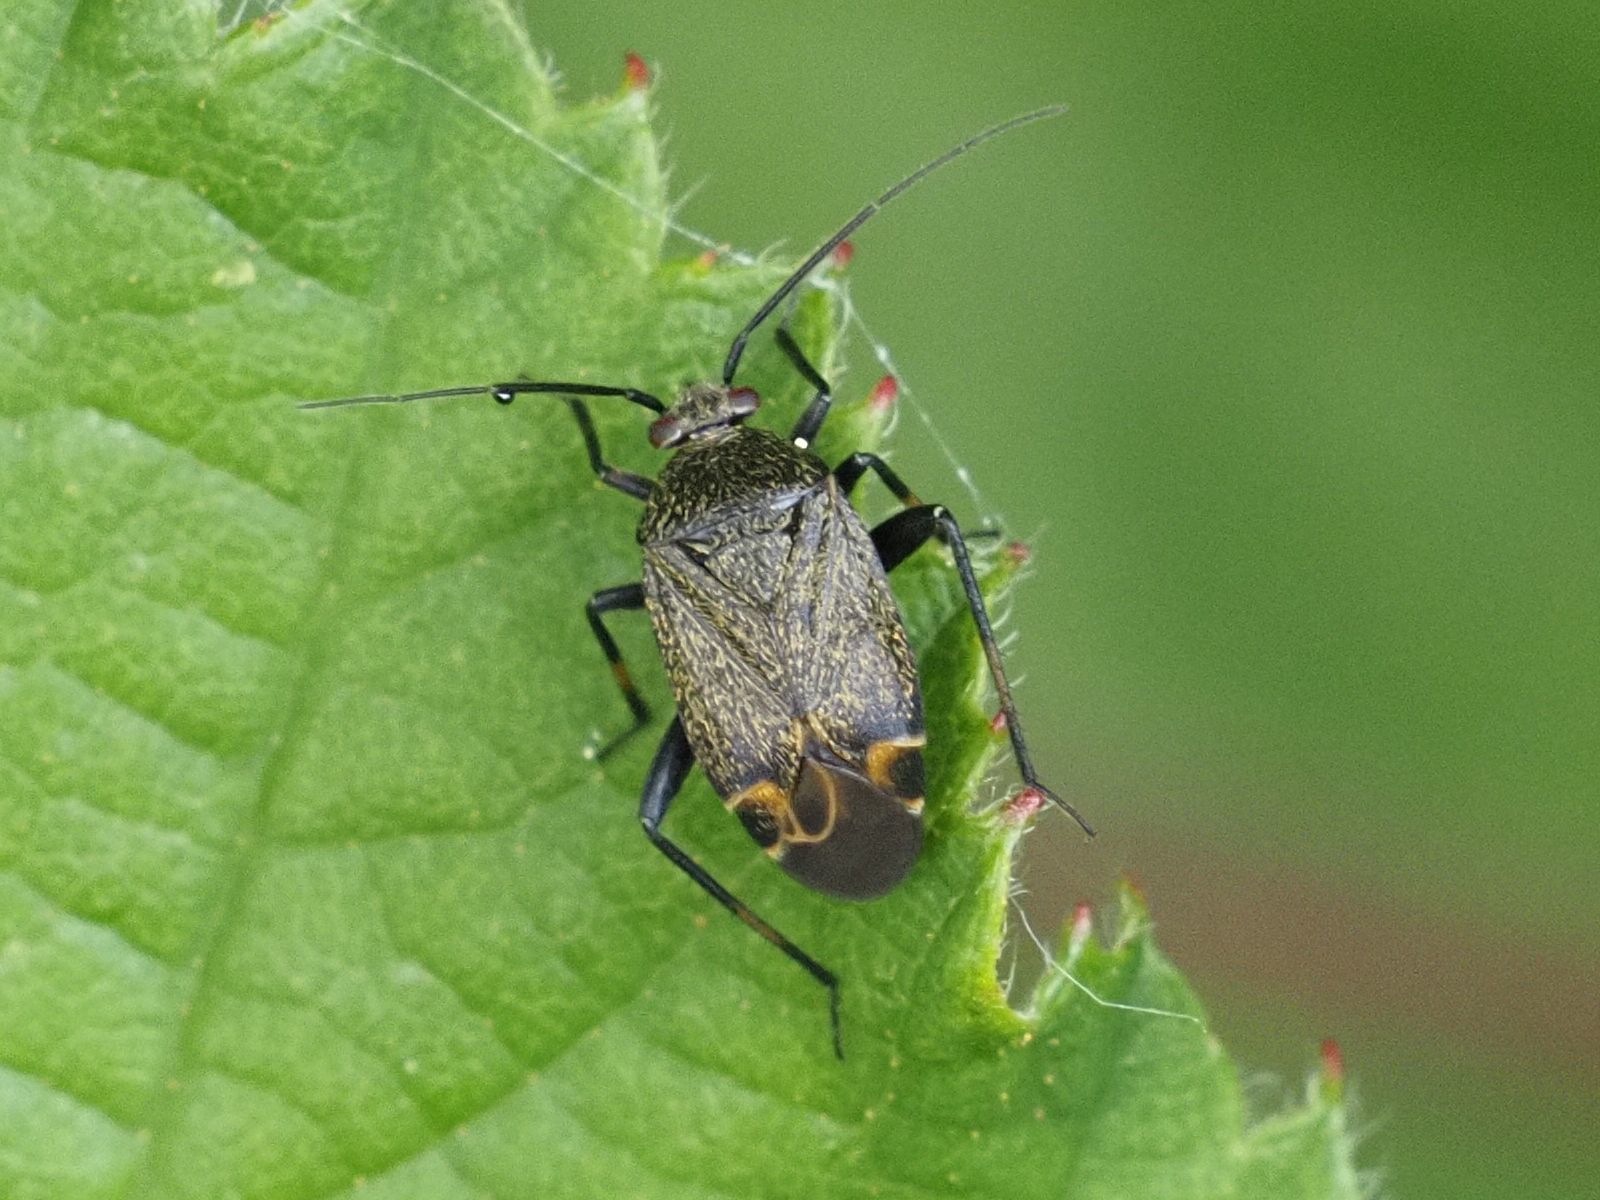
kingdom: Animalia
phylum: Arthropoda
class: Insecta
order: Hemiptera
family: Miridae
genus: Polymerus
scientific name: Polymerus nigritus
